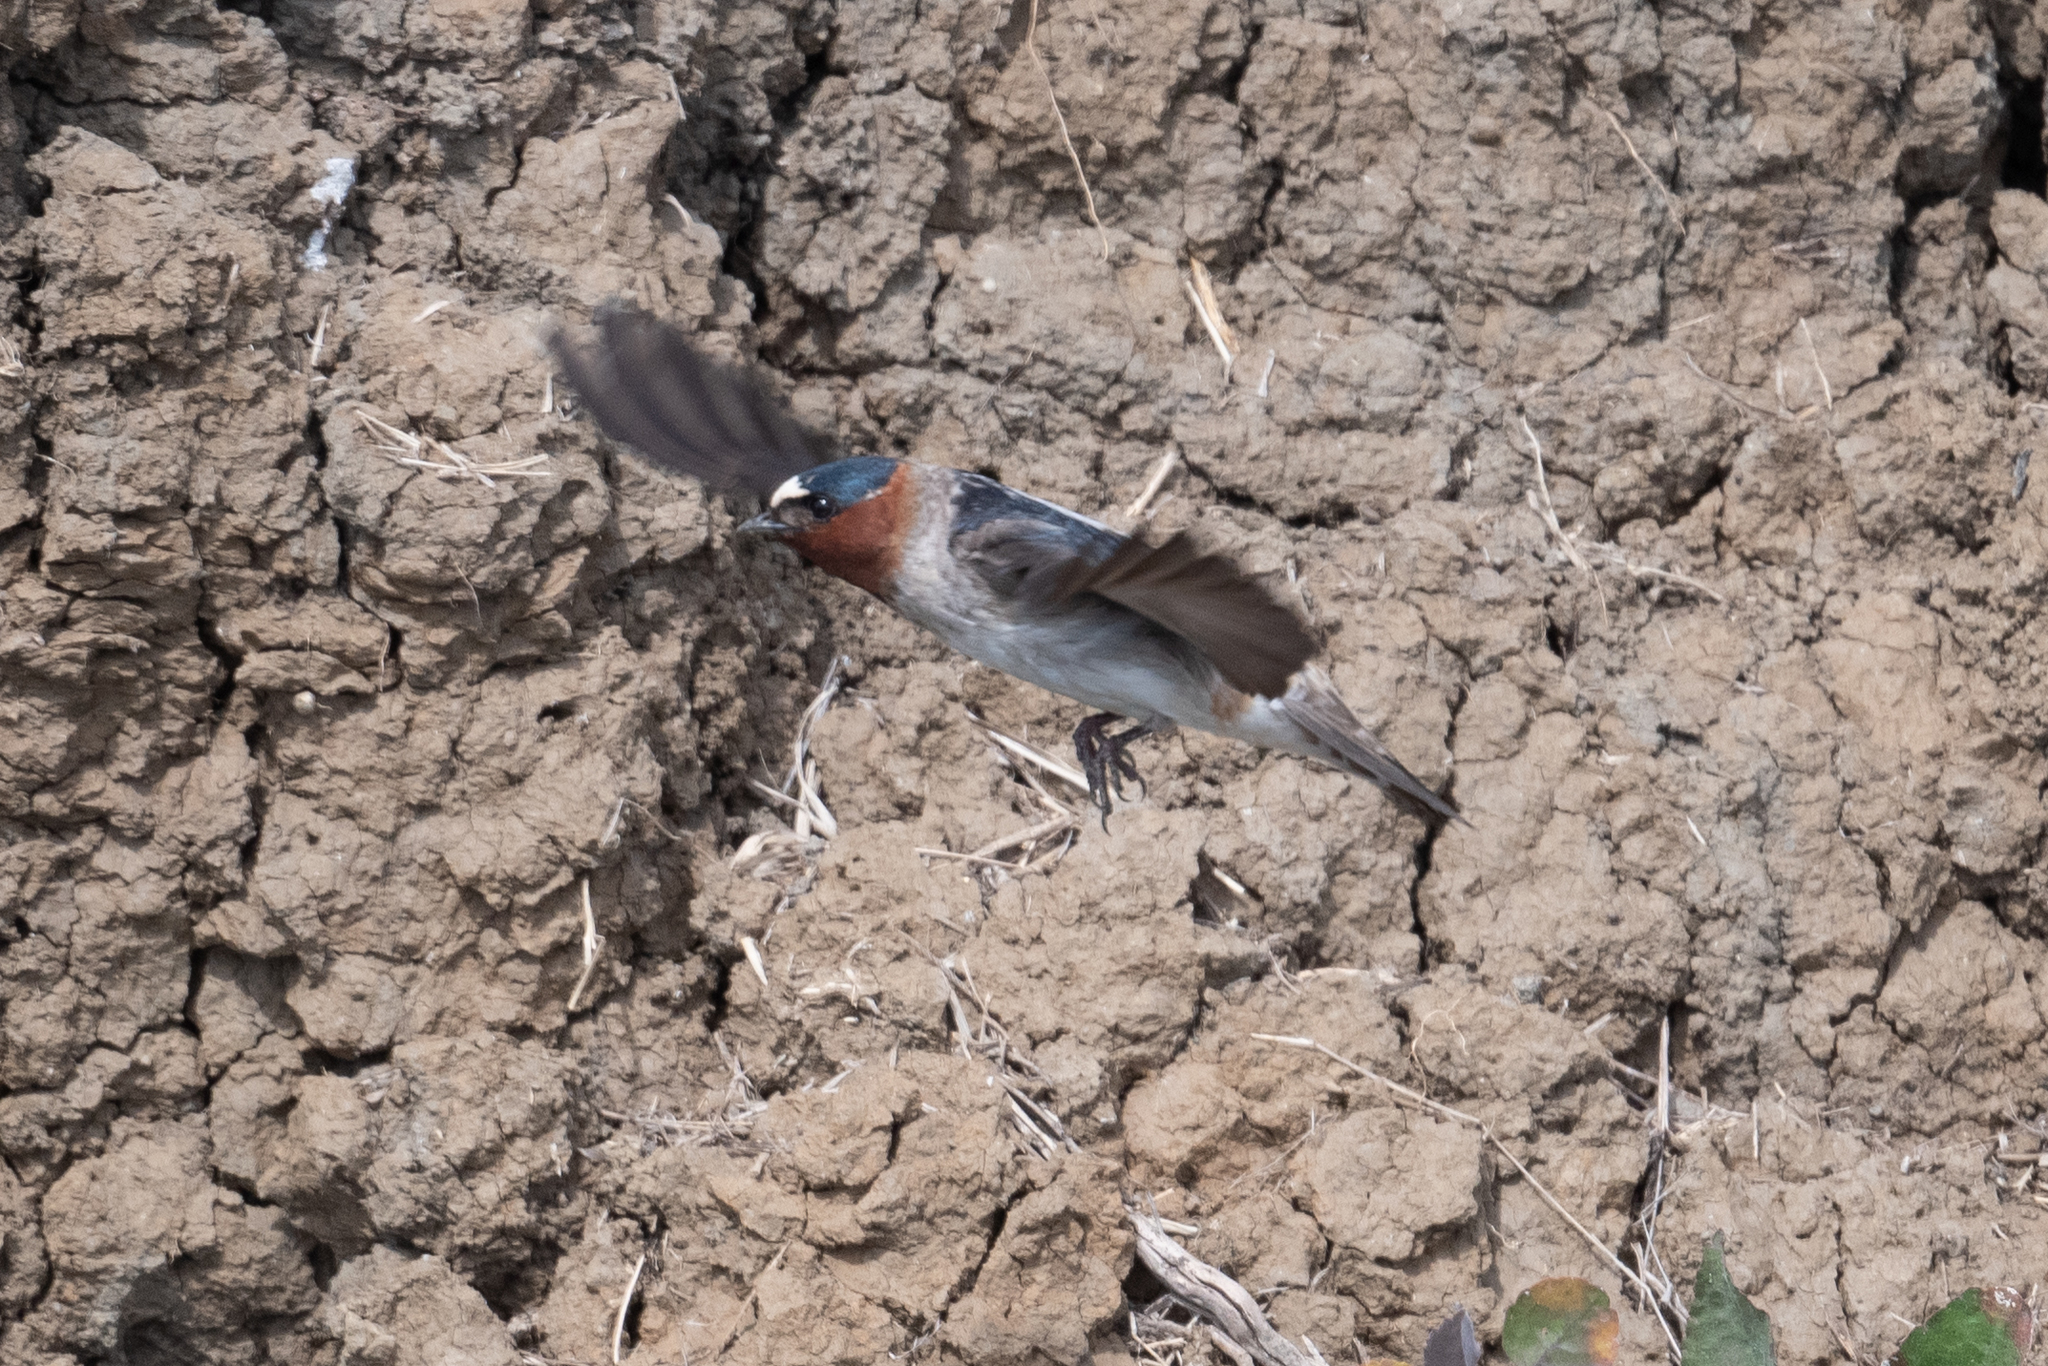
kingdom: Animalia
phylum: Chordata
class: Aves
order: Passeriformes
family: Hirundinidae
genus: Petrochelidon
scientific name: Petrochelidon pyrrhonota
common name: American cliff swallow
